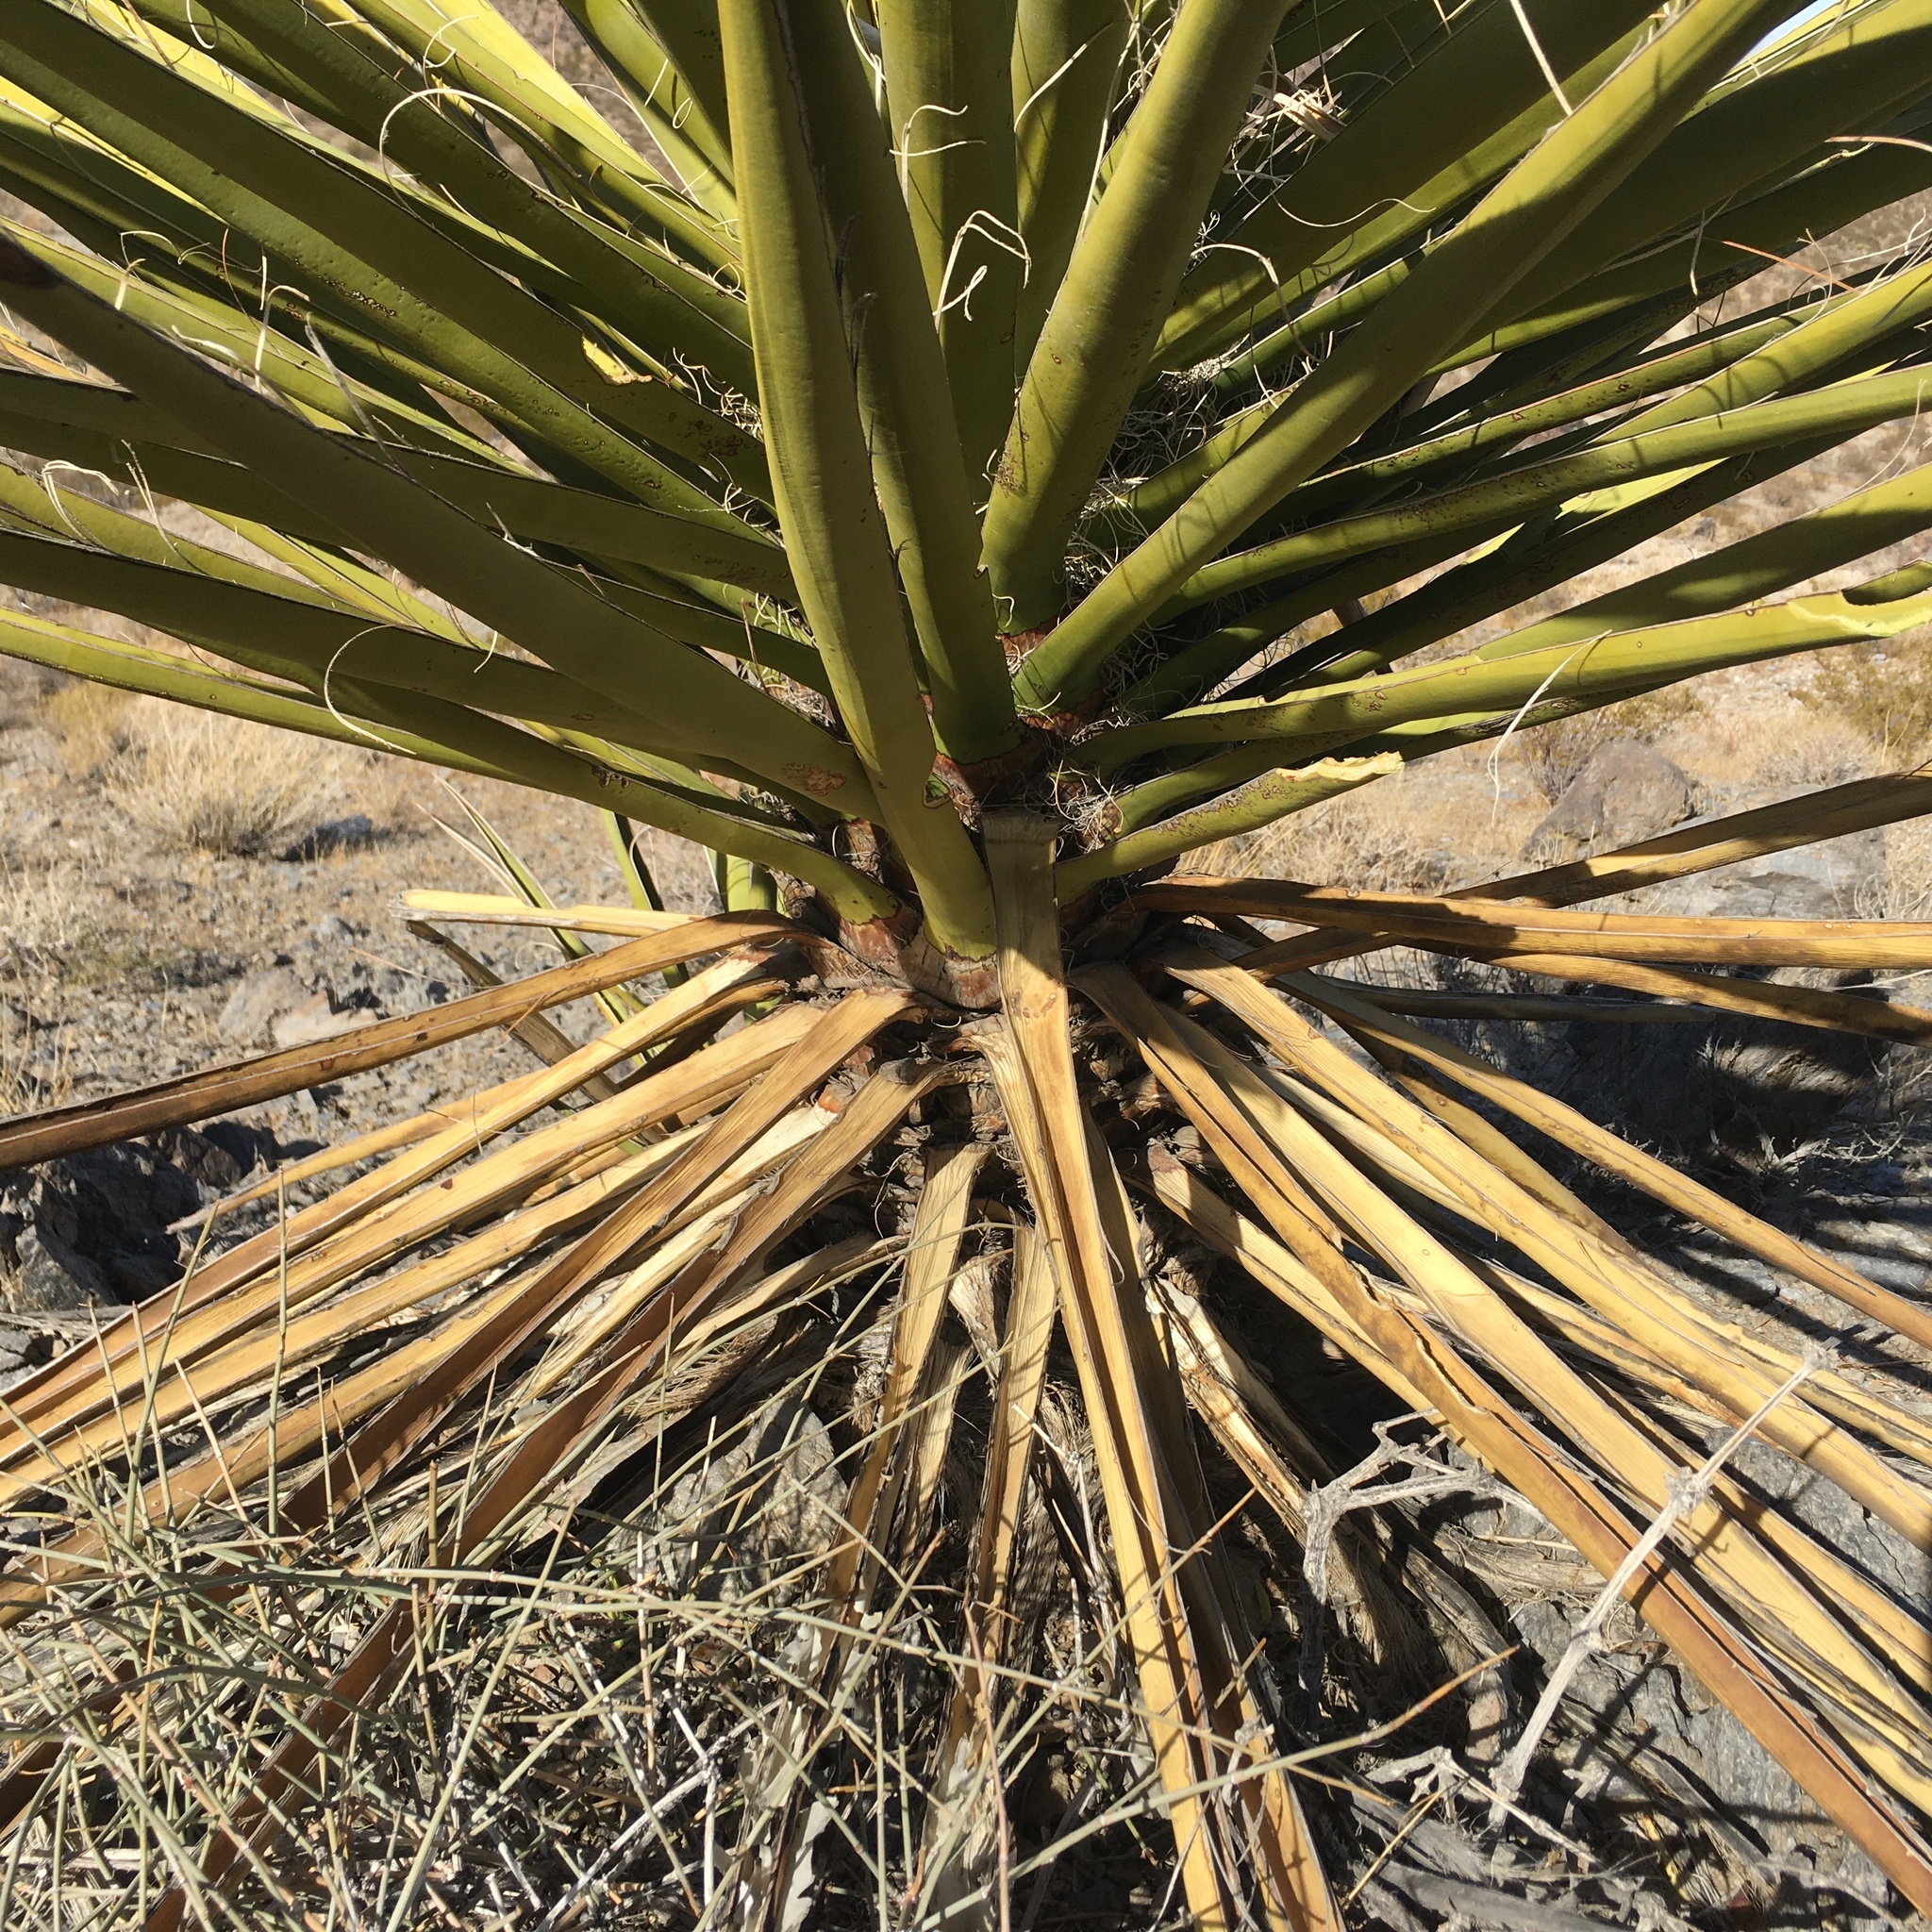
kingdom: Plantae
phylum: Tracheophyta
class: Liliopsida
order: Asparagales
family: Asparagaceae
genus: Yucca
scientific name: Yucca schidigera
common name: Mojave yucca
